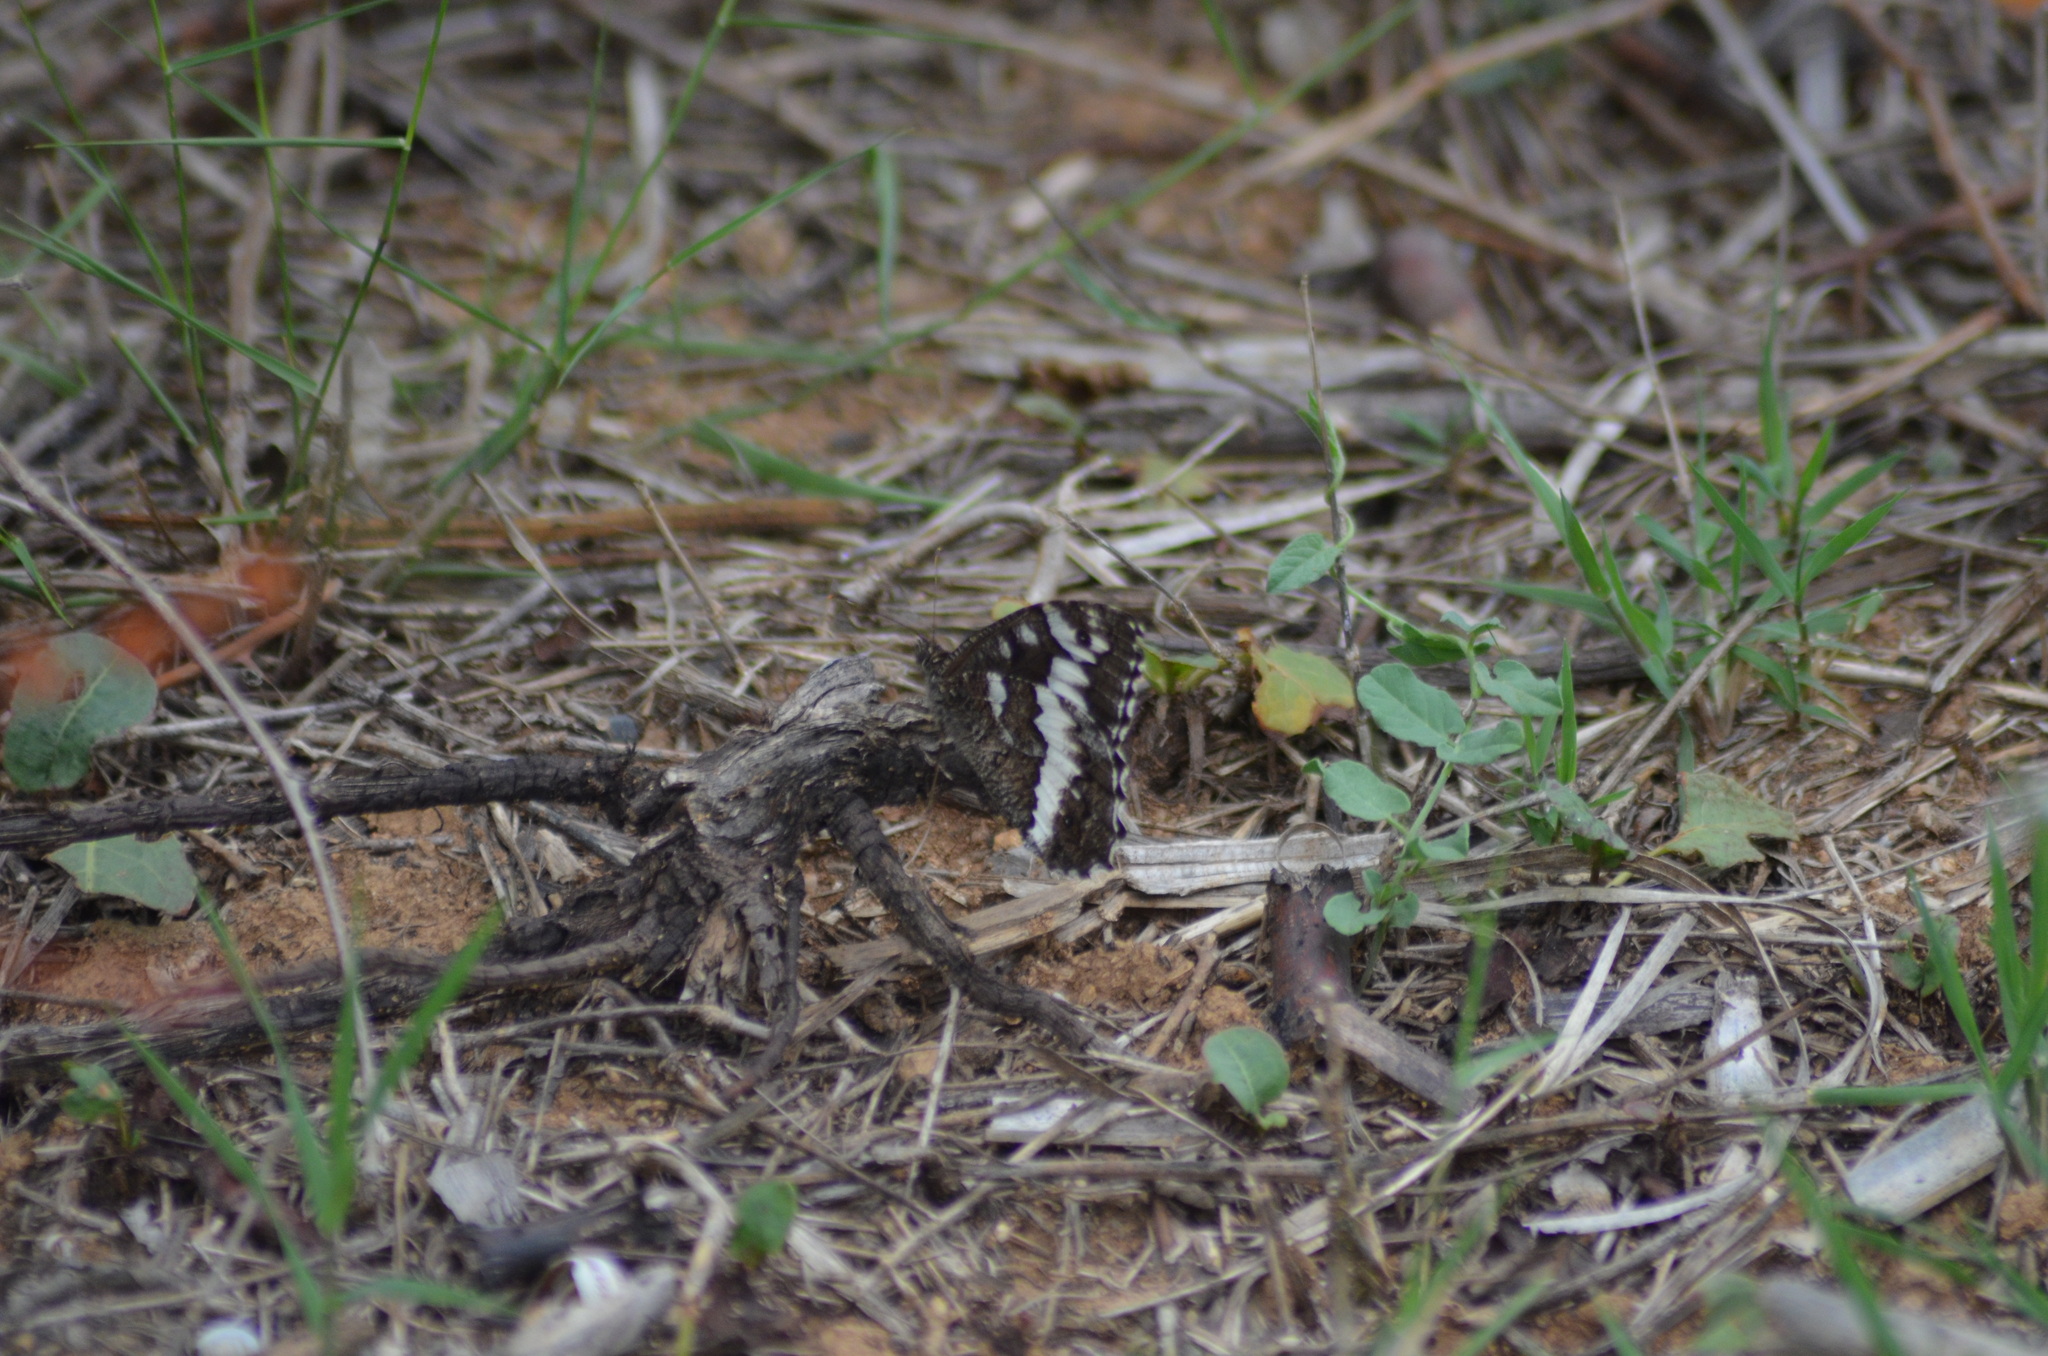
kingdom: Animalia
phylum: Arthropoda
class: Insecta
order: Lepidoptera
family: Lycaenidae
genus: Loweia
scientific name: Loweia tityrus
